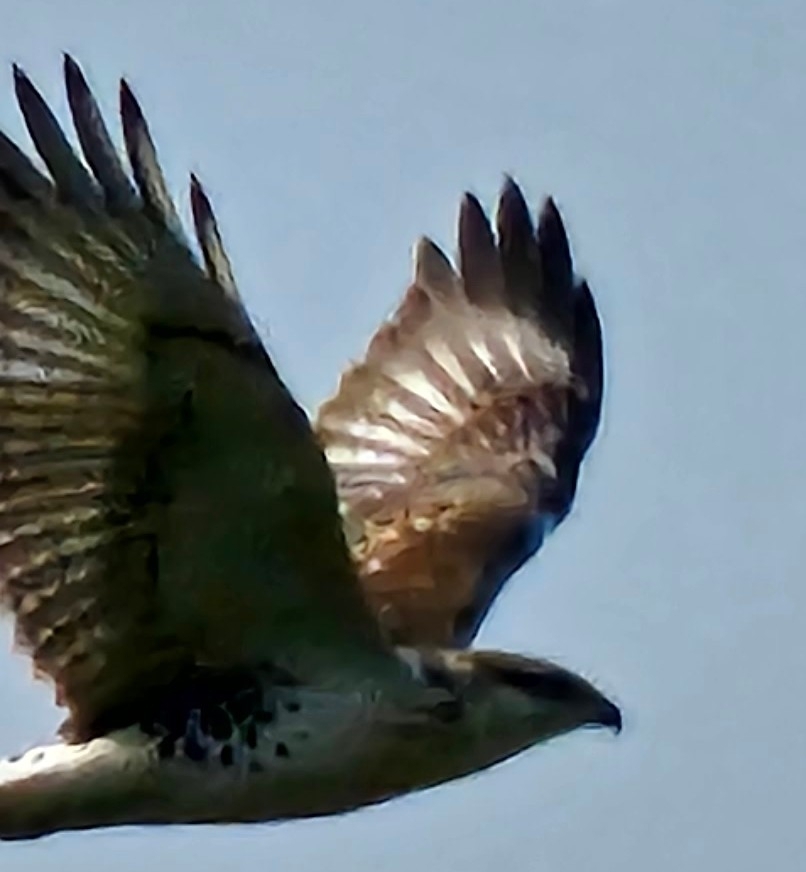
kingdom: Animalia
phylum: Chordata
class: Aves
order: Accipitriformes
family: Accipitridae
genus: Buteo
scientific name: Buteo regalis
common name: Ferruginous hawk
